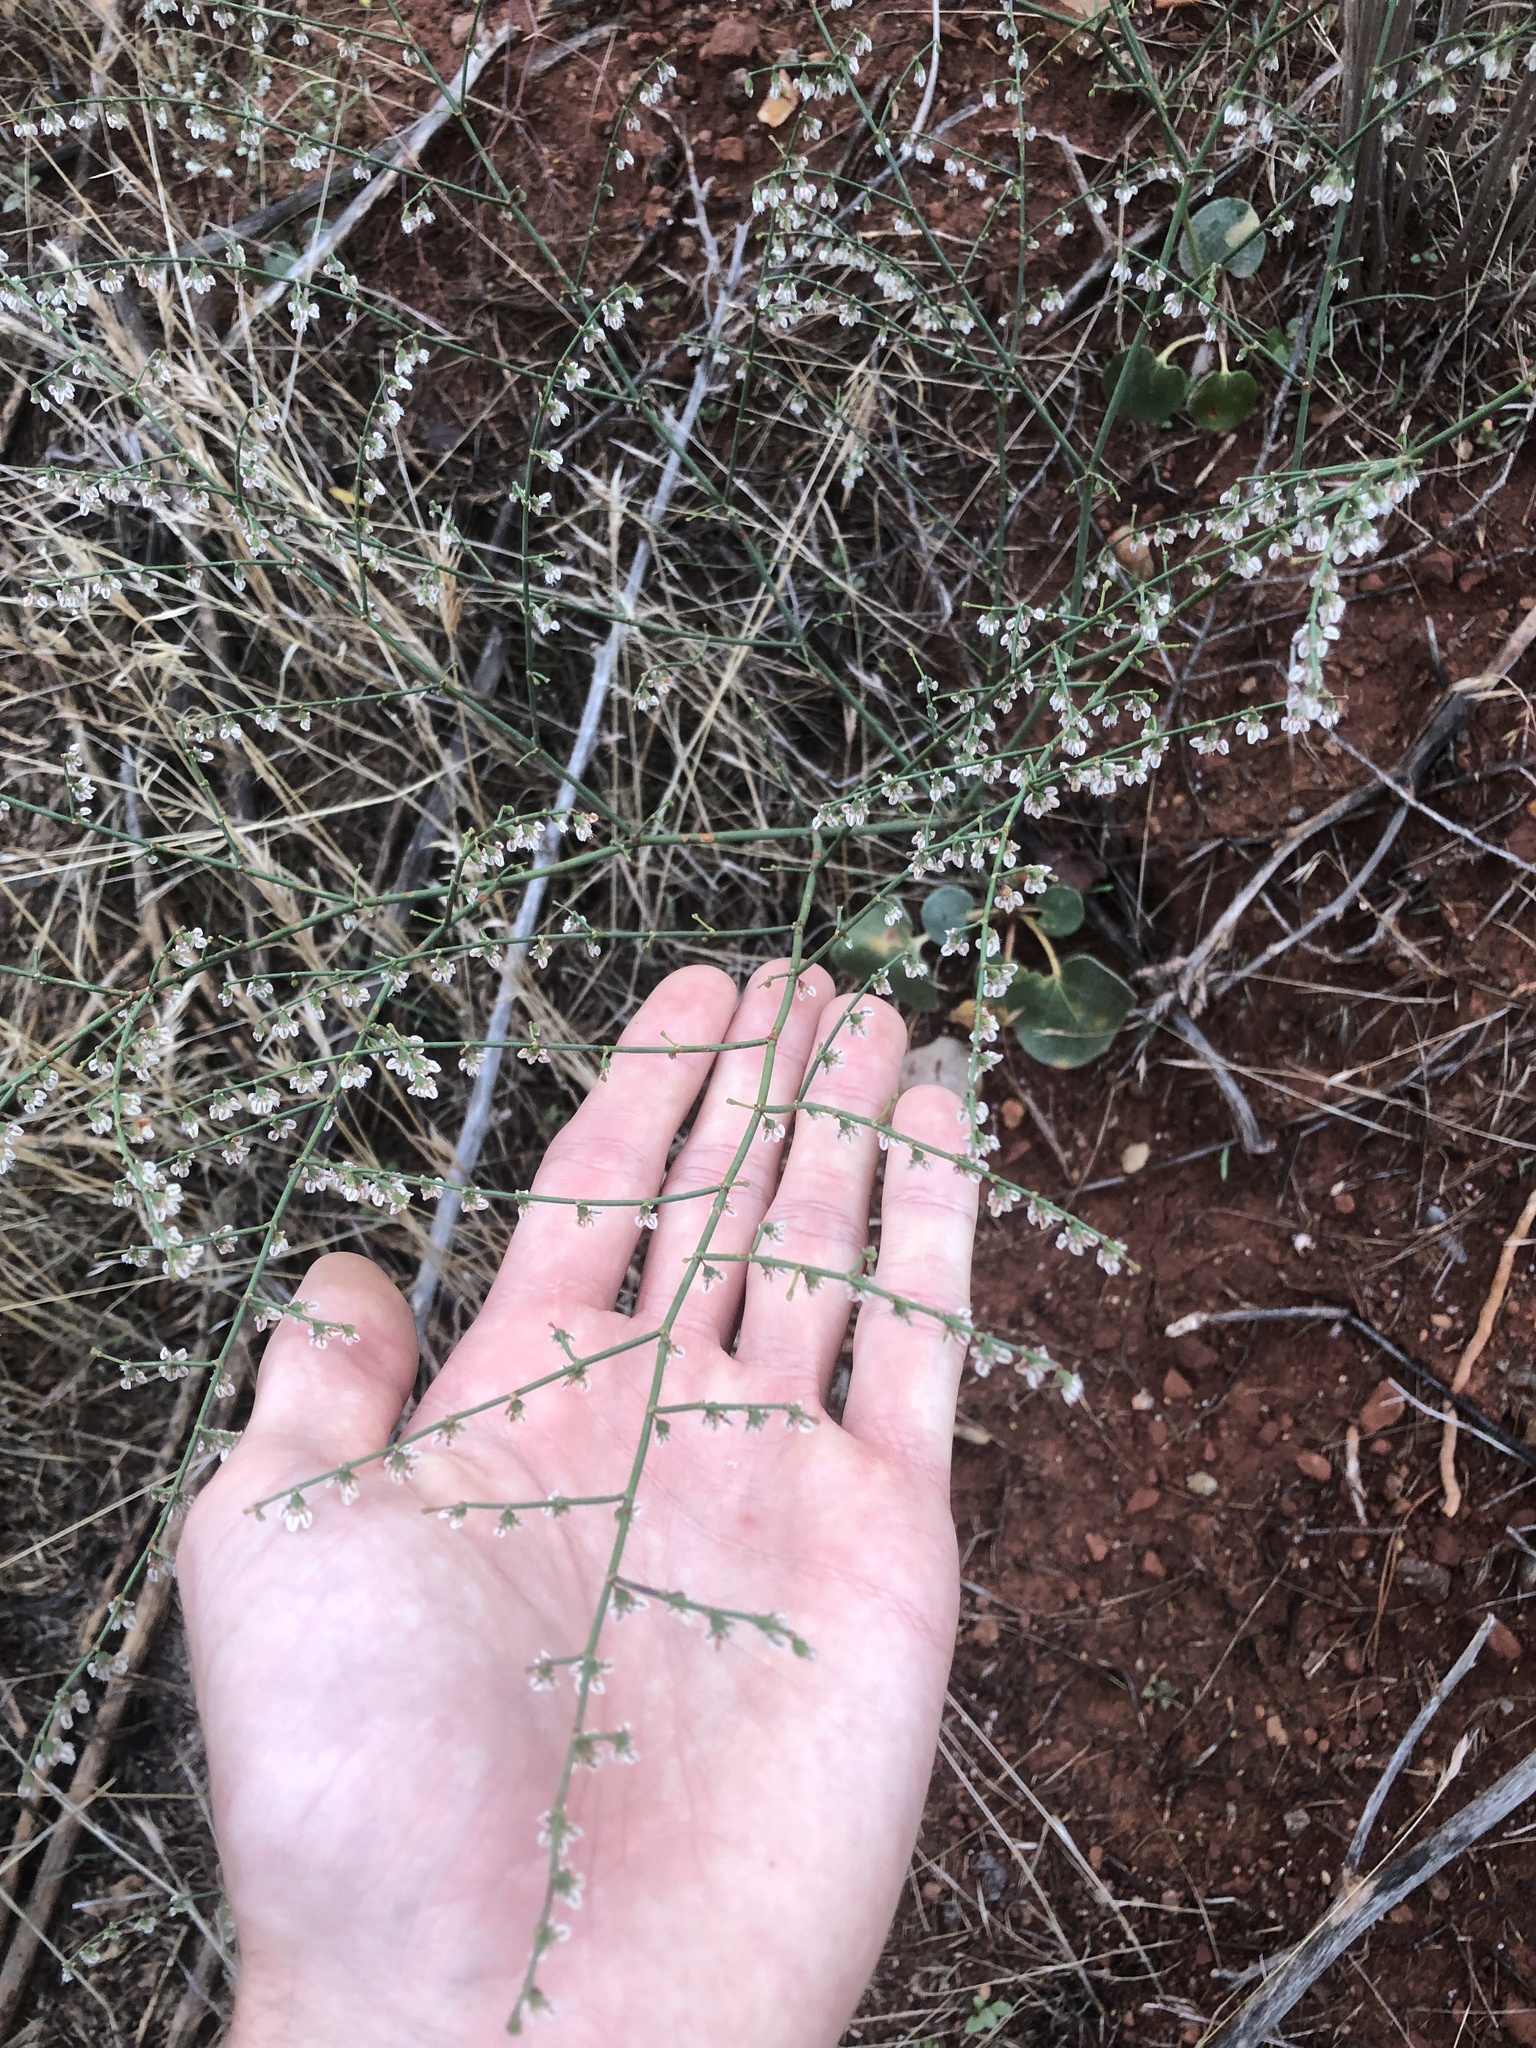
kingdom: Plantae
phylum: Tracheophyta
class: Magnoliopsida
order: Caryophyllales
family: Polygonaceae
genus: Eriogonum
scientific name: Eriogonum deflexum
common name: Skeleton-weed
